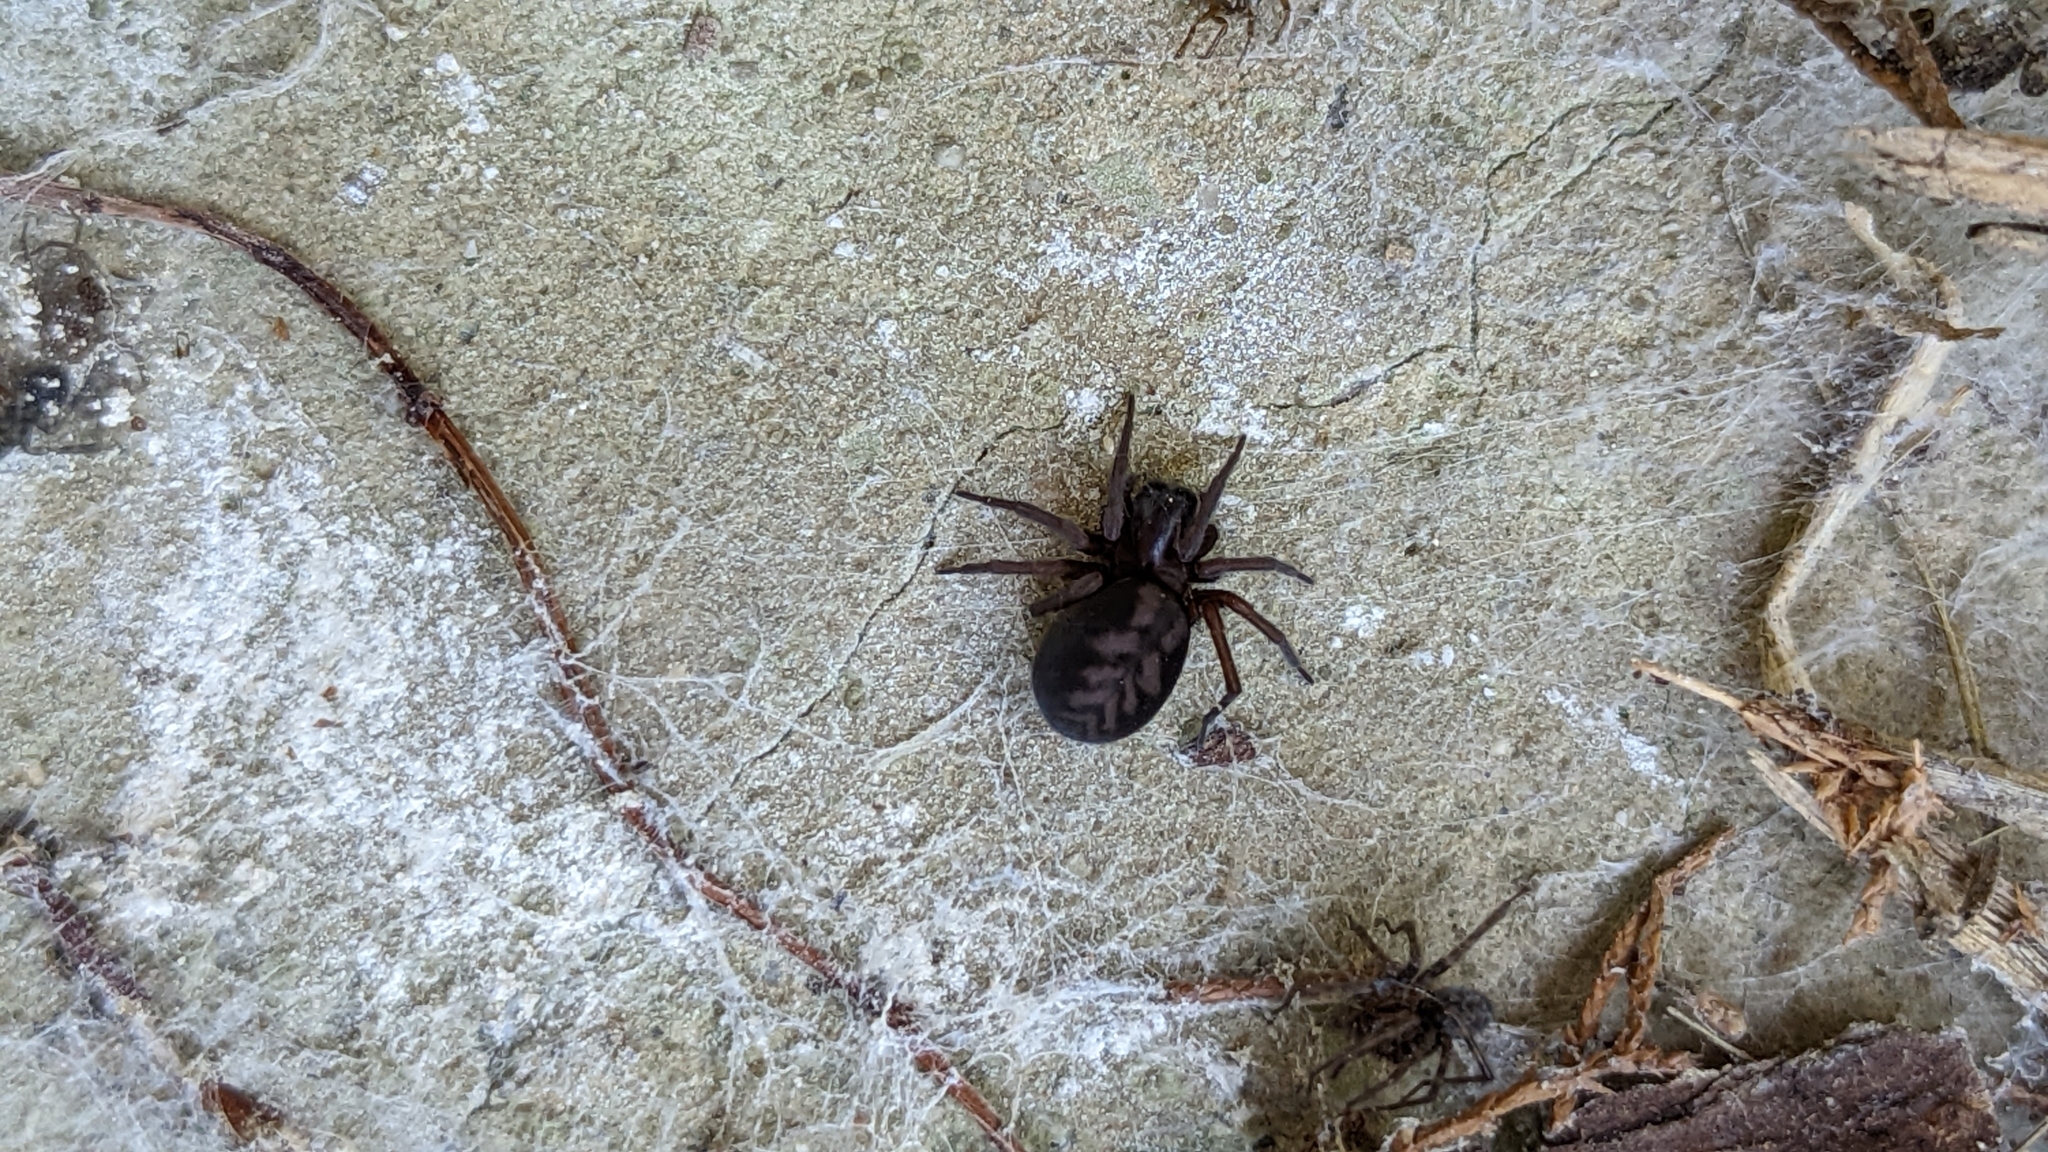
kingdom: Animalia
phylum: Arthropoda
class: Arachnida
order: Araneae
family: Amaurobiidae
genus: Callobius
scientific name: Callobius bennetti
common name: Bennett's laceweaver
